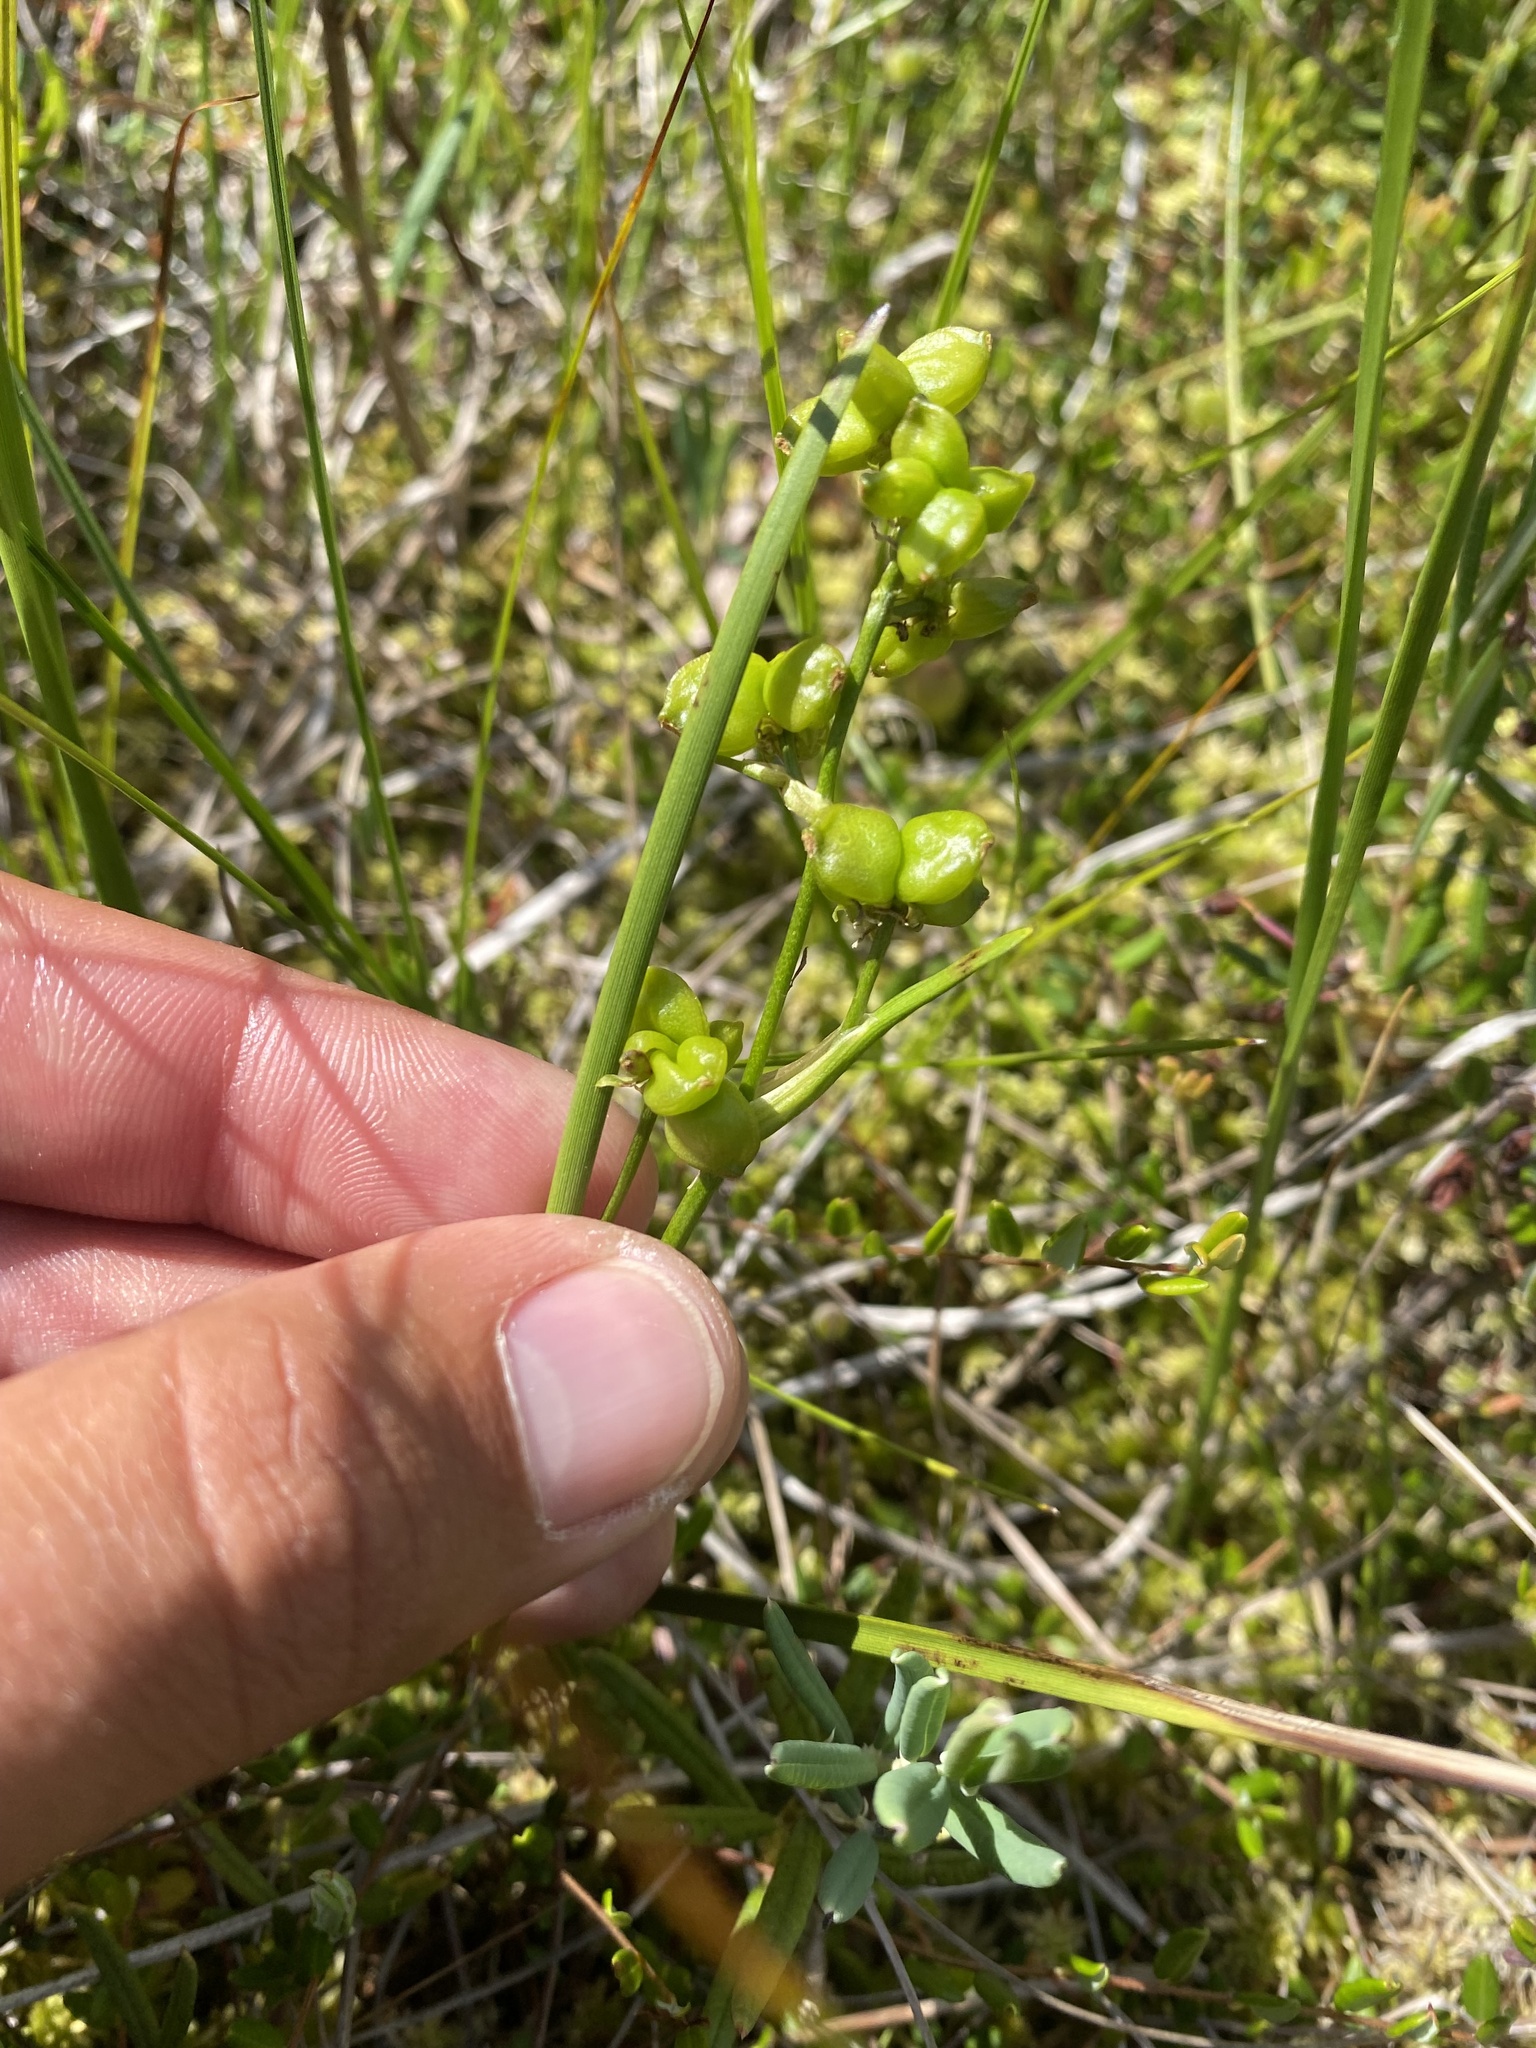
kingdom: Plantae
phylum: Tracheophyta
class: Liliopsida
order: Alismatales
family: Scheuchzeriaceae
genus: Scheuchzeria
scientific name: Scheuchzeria palustris
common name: Rannoch-rush
